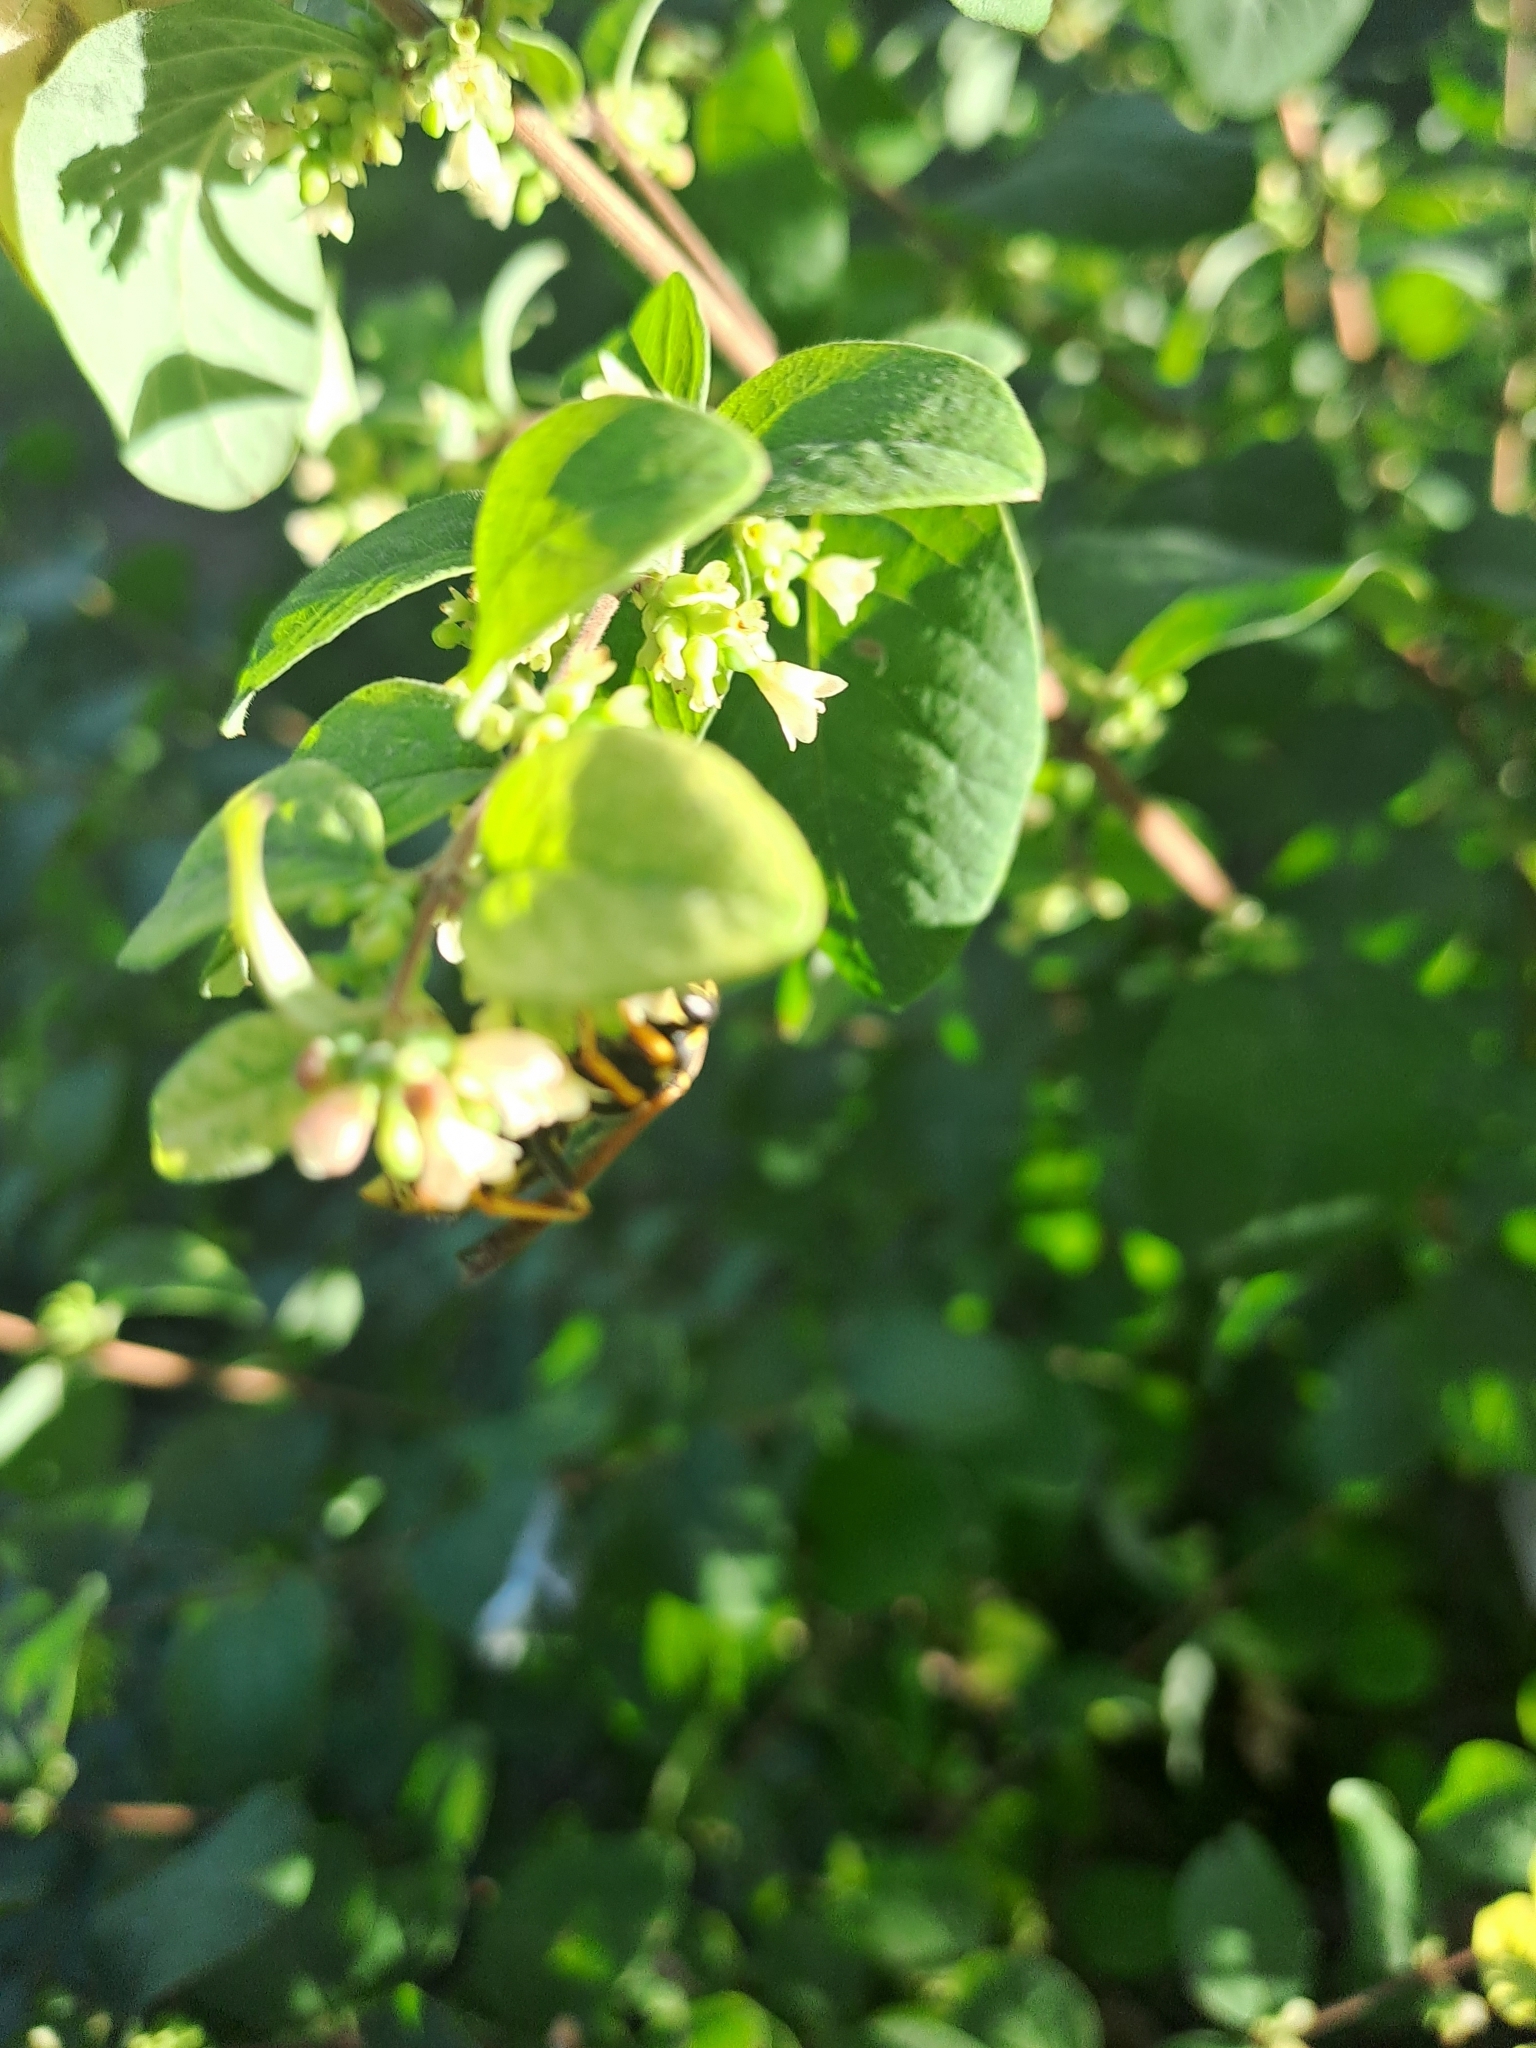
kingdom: Animalia
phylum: Arthropoda
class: Insecta
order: Hymenoptera
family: Eumenidae
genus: Polistes
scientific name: Polistes dominula
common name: Paper wasp
